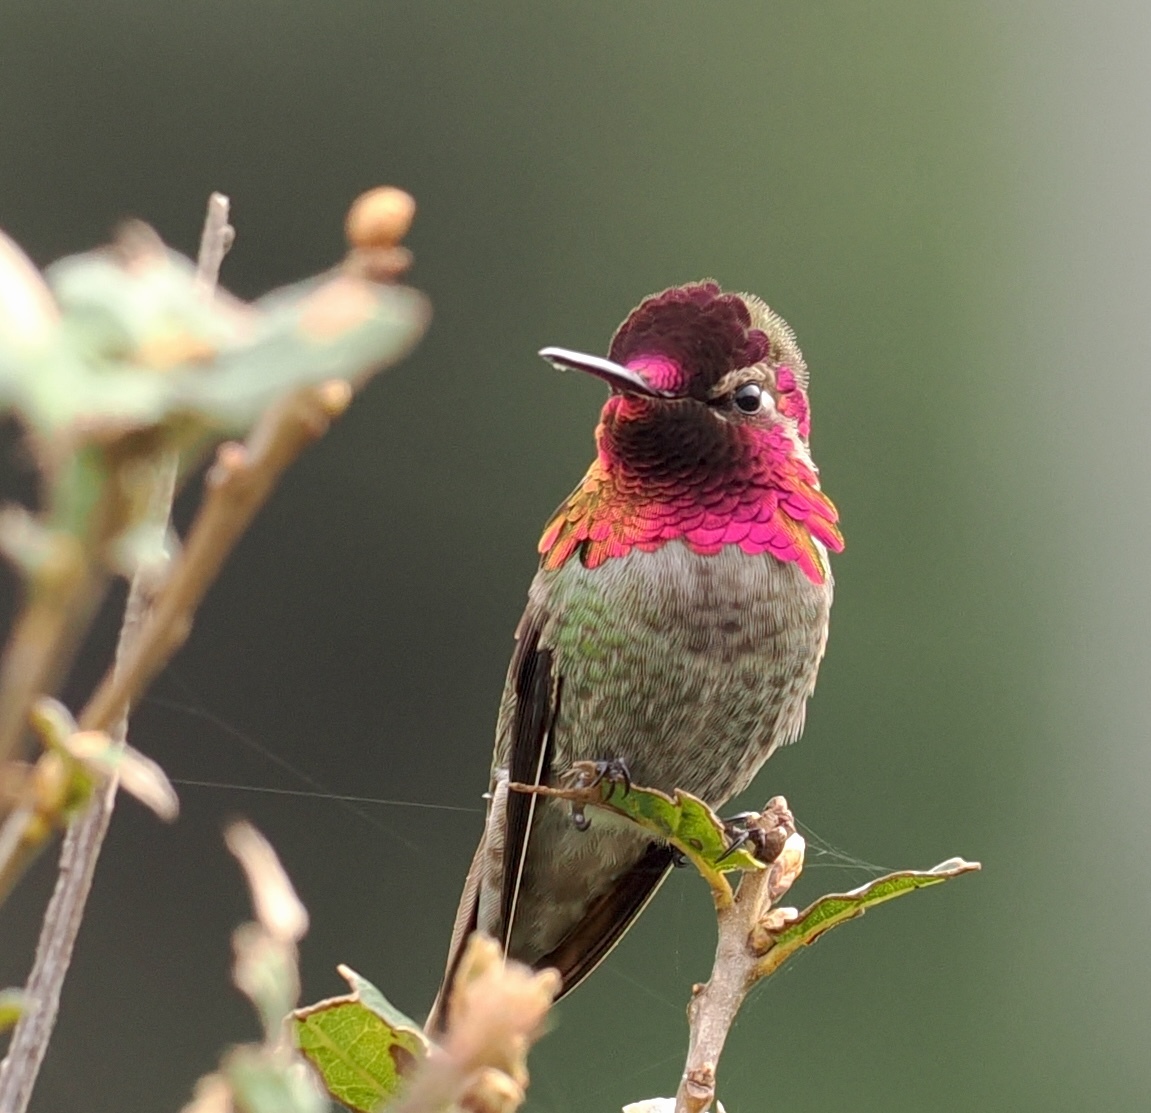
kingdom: Animalia
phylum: Chordata
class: Aves
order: Apodiformes
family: Trochilidae
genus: Calypte
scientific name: Calypte anna
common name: Anna's hummingbird
